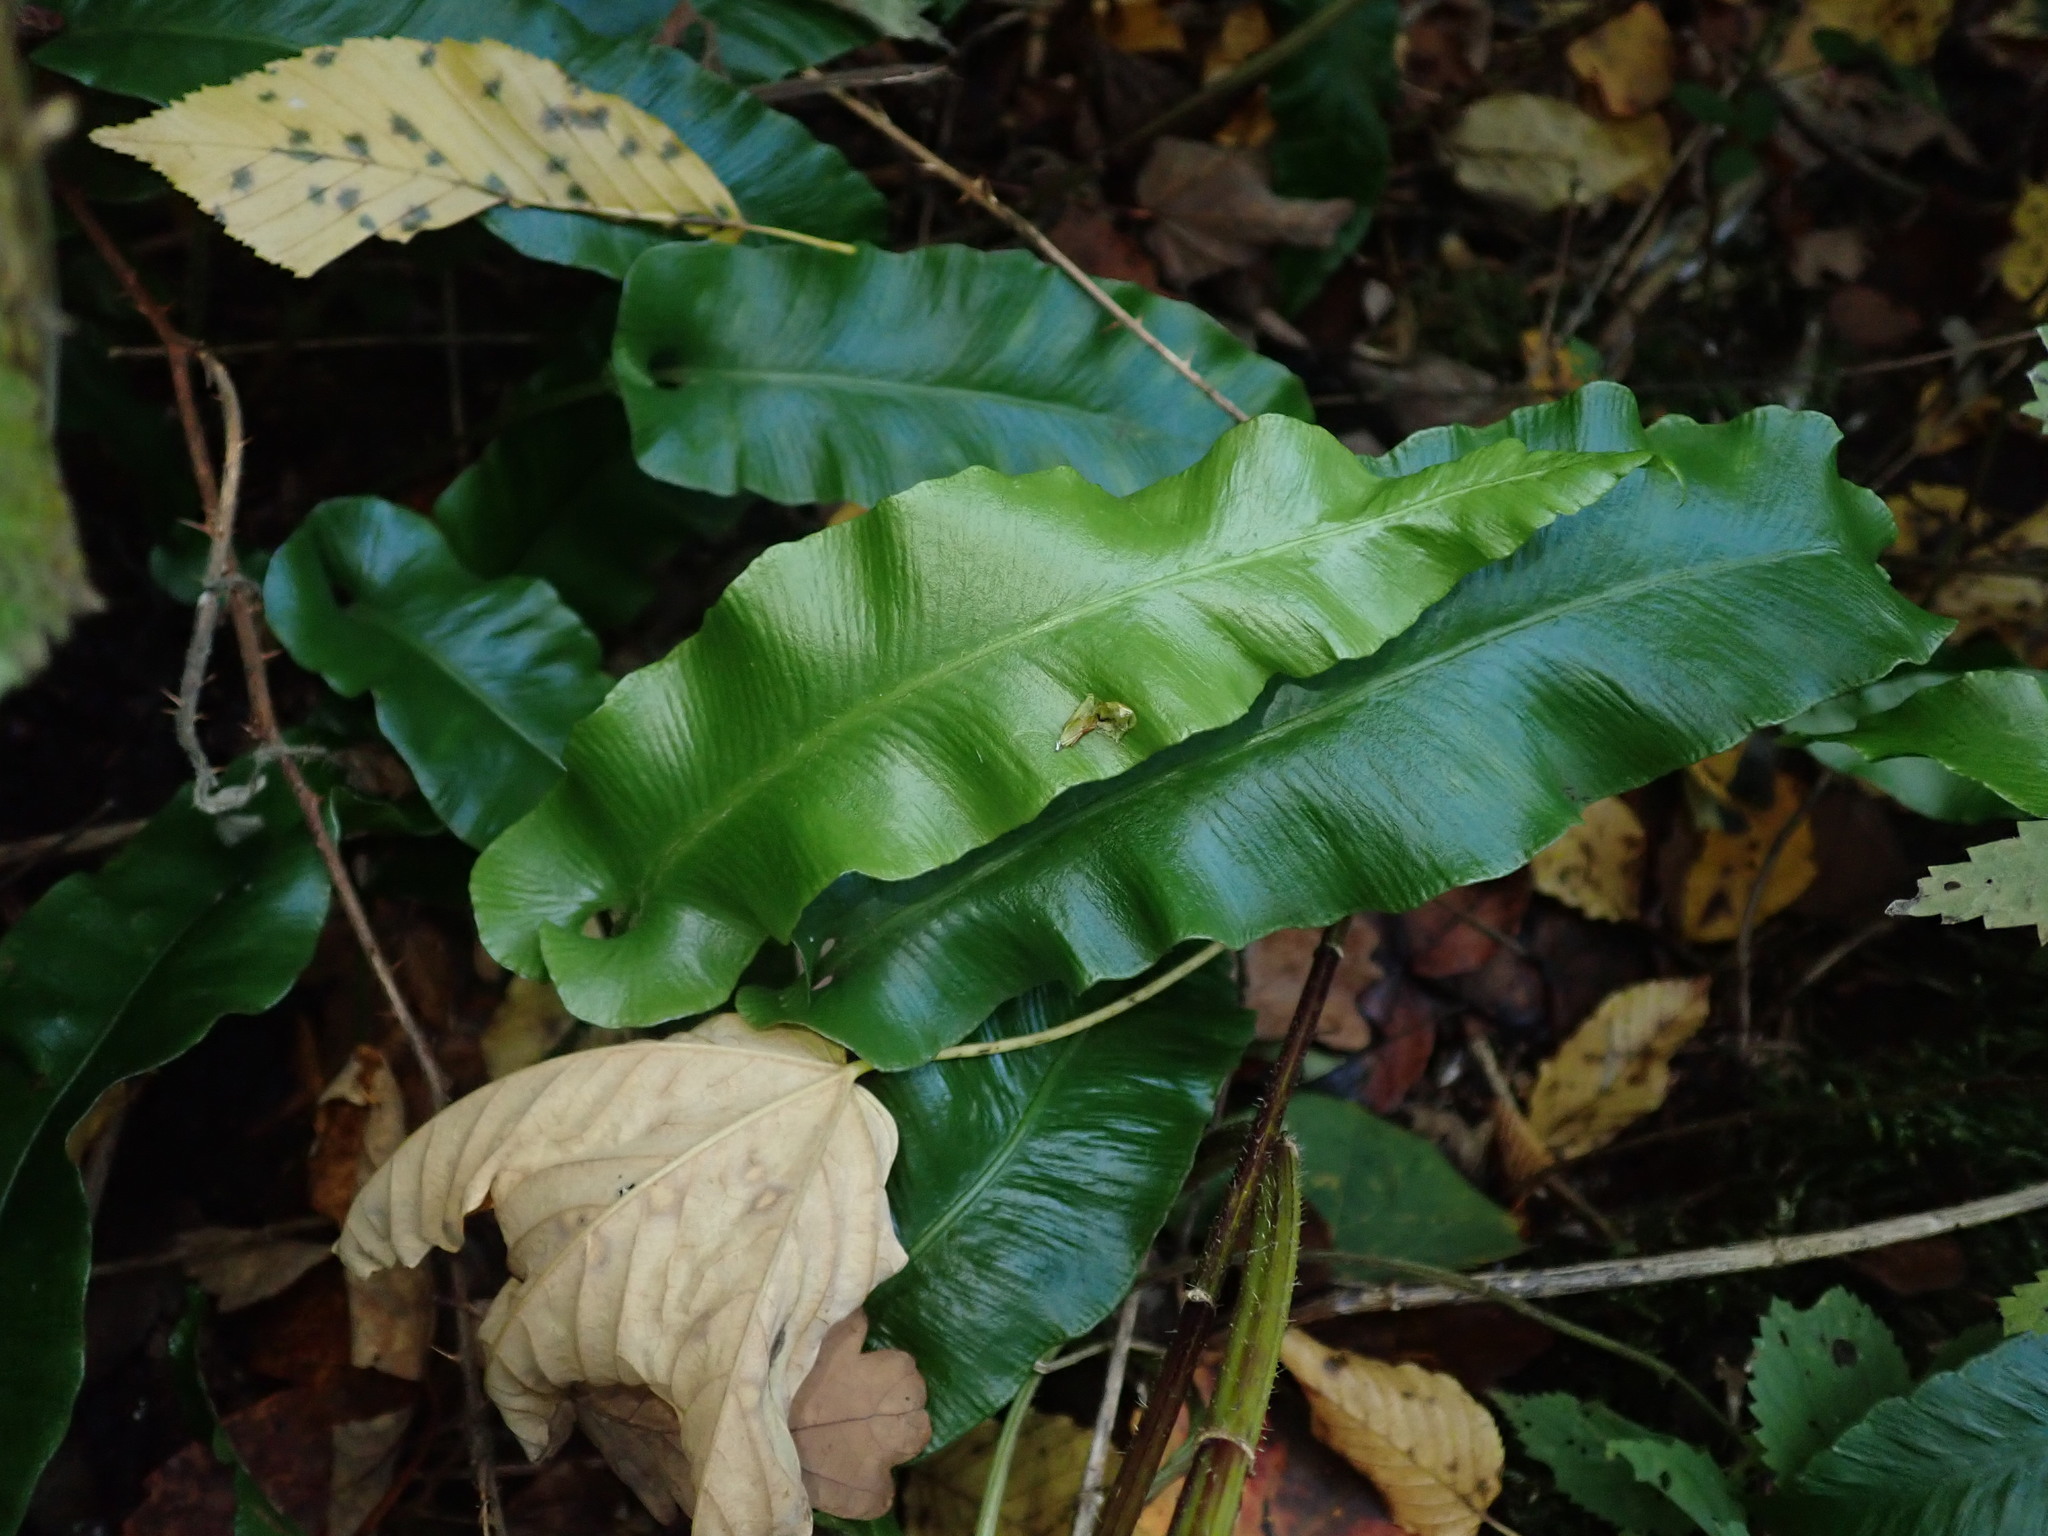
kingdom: Plantae
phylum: Tracheophyta
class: Polypodiopsida
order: Polypodiales
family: Aspleniaceae
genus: Asplenium
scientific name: Asplenium scolopendrium
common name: Hart's-tongue fern
